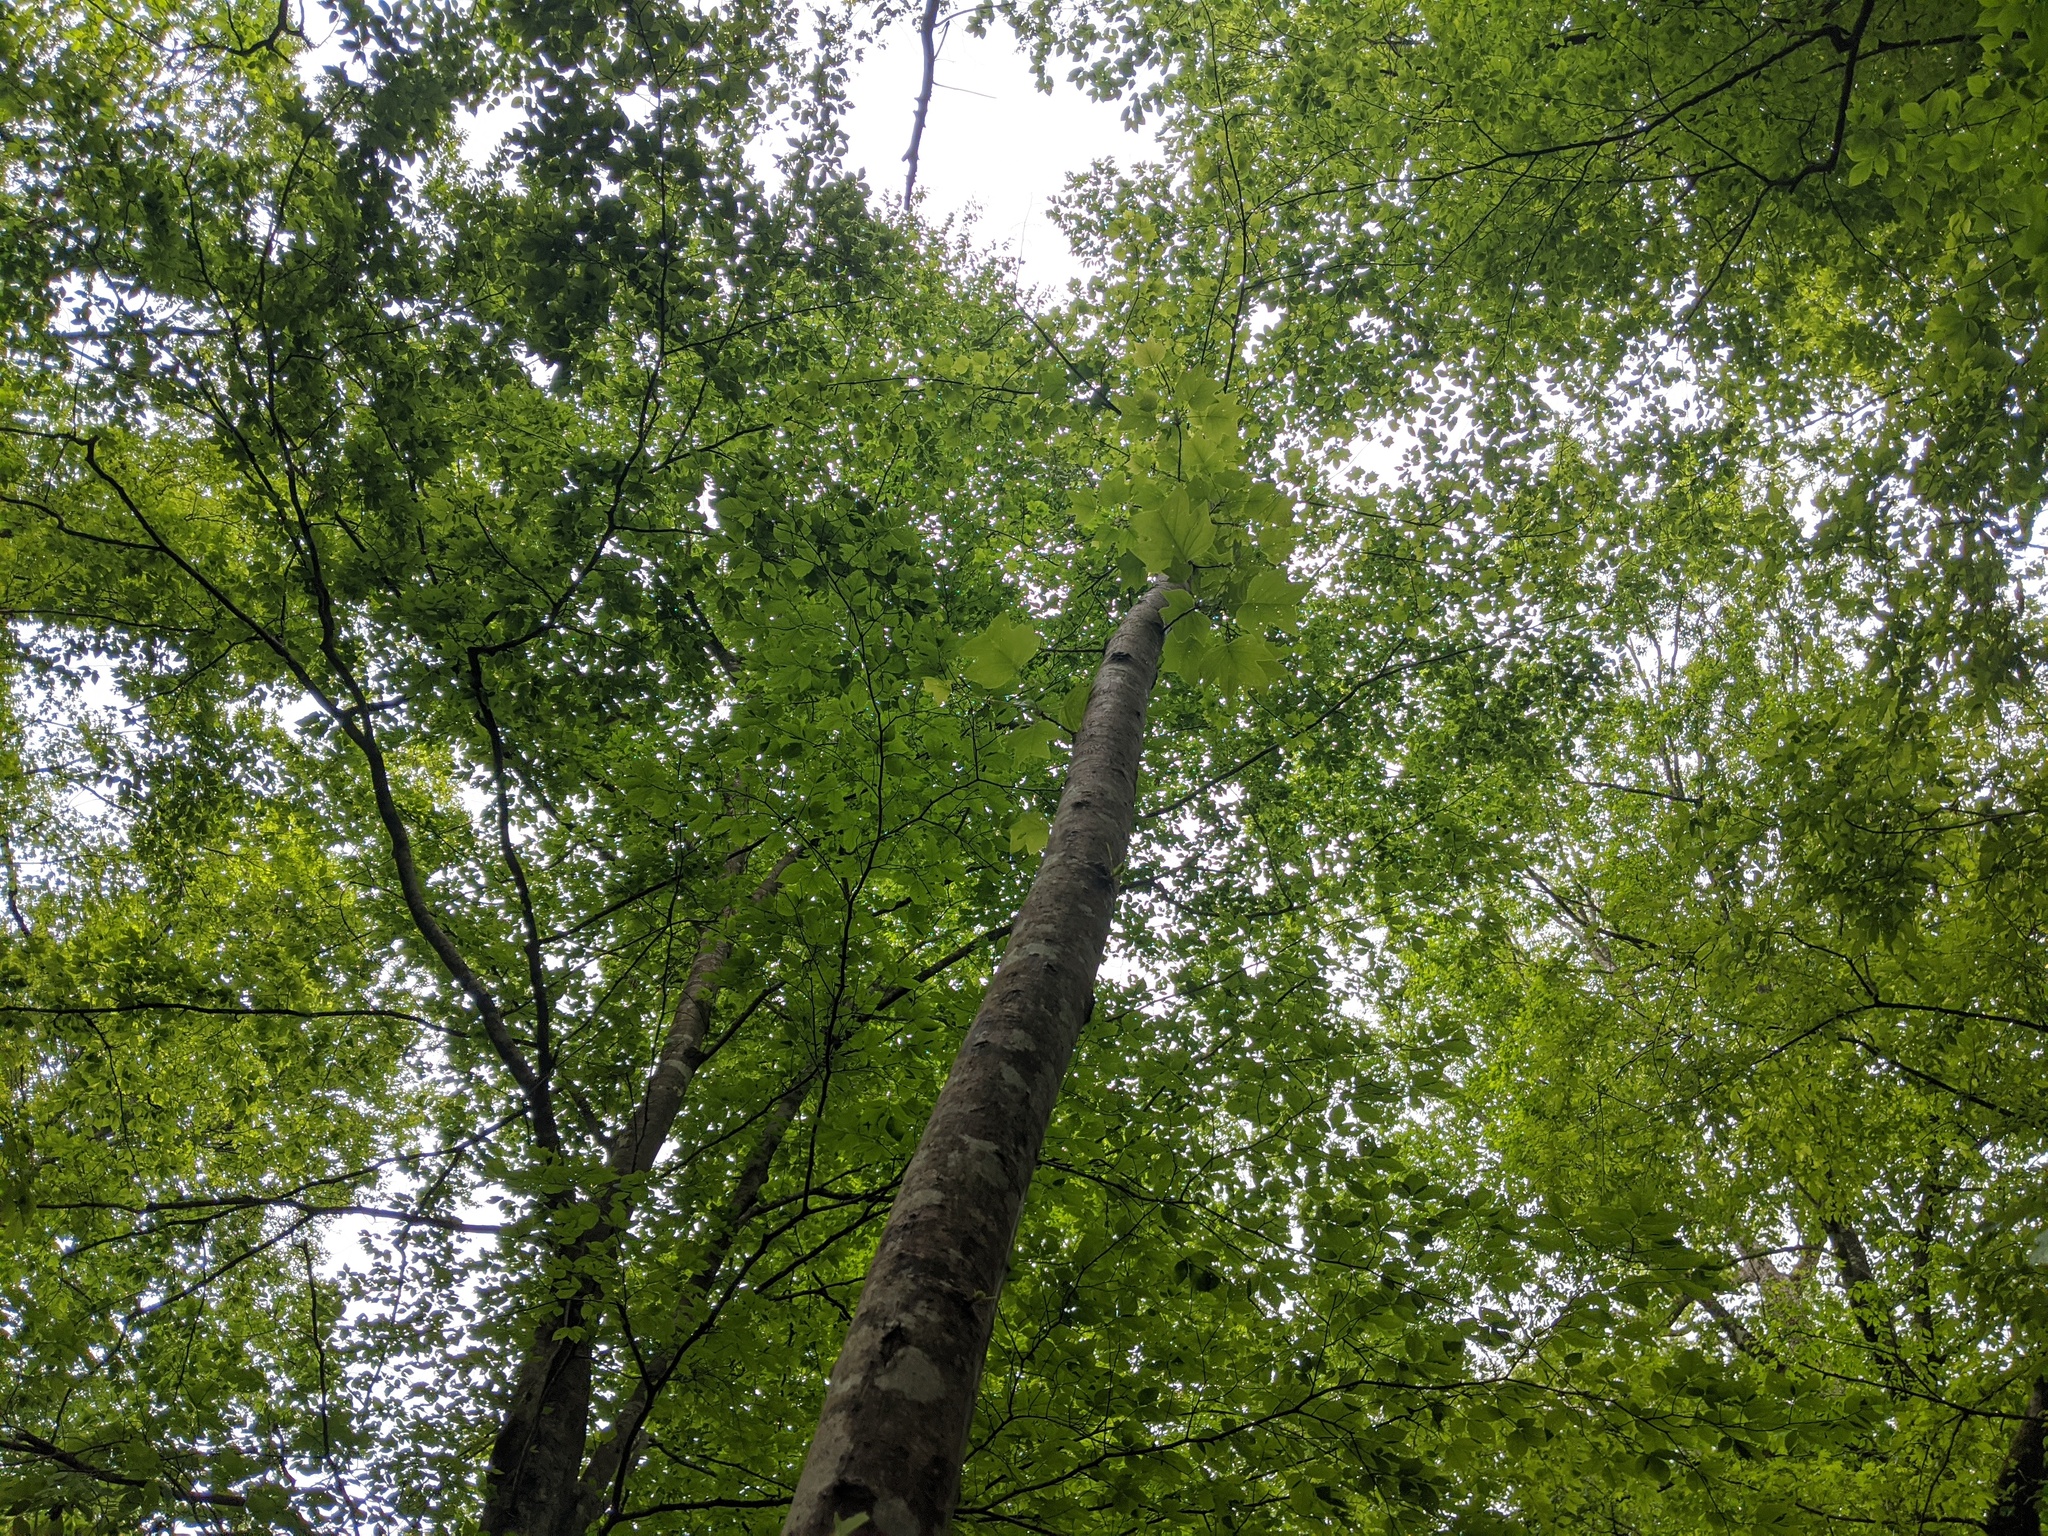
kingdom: Plantae
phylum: Tracheophyta
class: Magnoliopsida
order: Magnoliales
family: Magnoliaceae
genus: Liriodendron
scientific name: Liriodendron tulipifera
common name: Tulip tree
